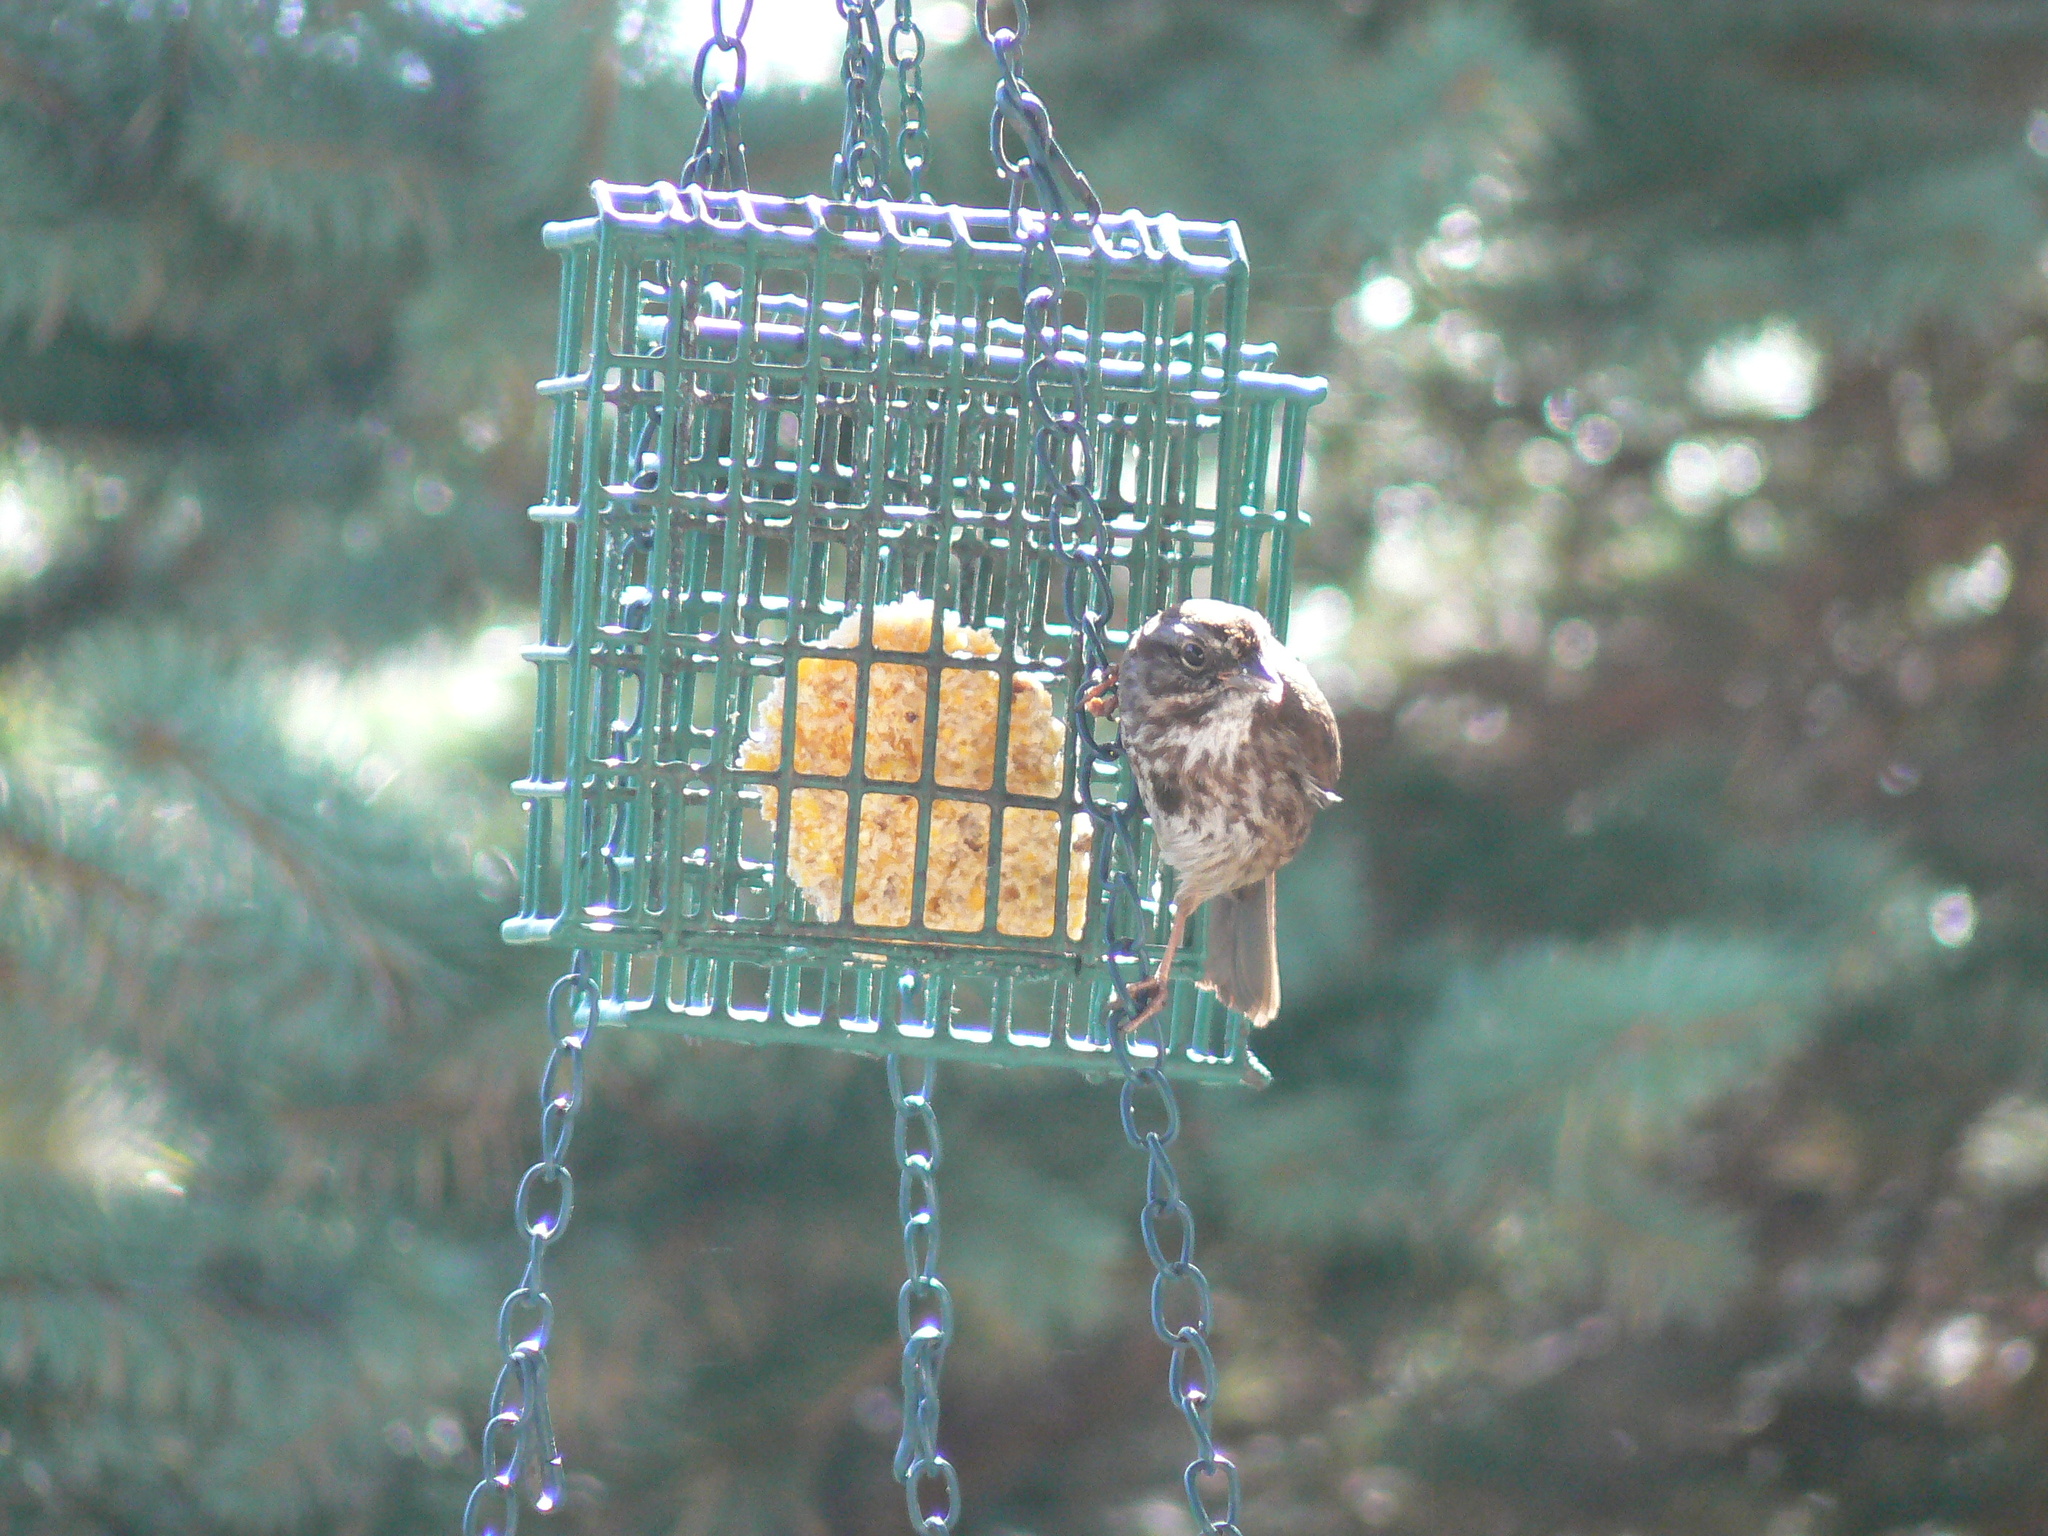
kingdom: Animalia
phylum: Chordata
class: Aves
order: Passeriformes
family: Passerellidae
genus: Melospiza
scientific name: Melospiza melodia
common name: Song sparrow
